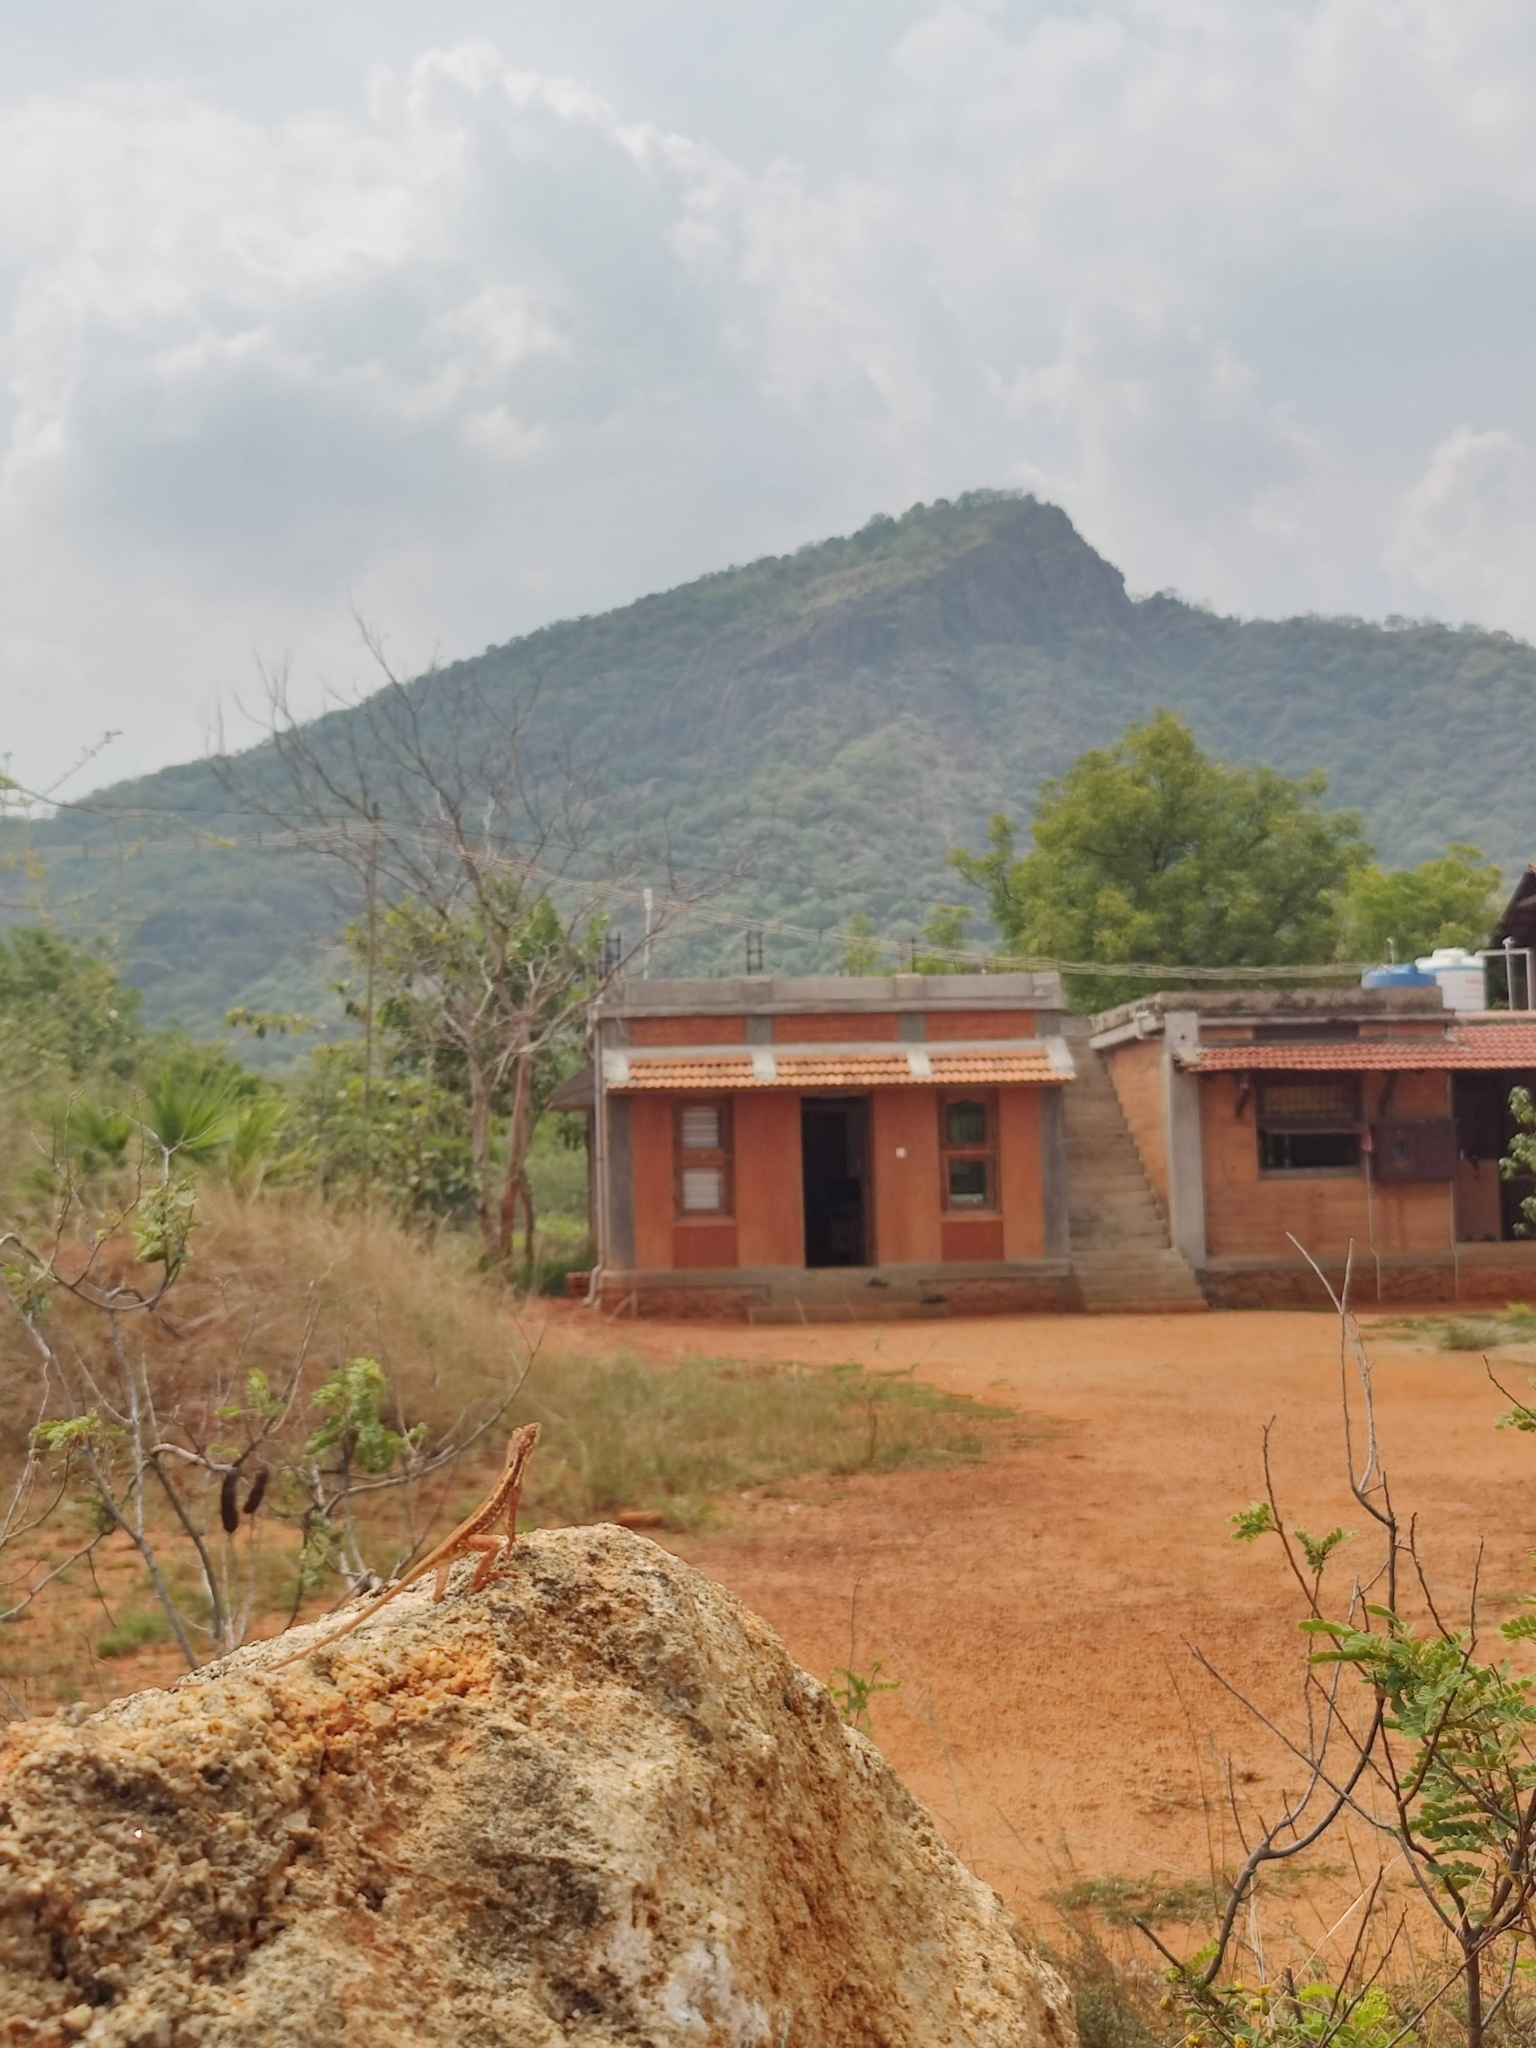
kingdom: Animalia
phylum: Chordata
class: Squamata
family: Agamidae
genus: Sitana
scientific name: Sitana marudhamneydhal
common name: Attenborough’s fan-throated lizard
